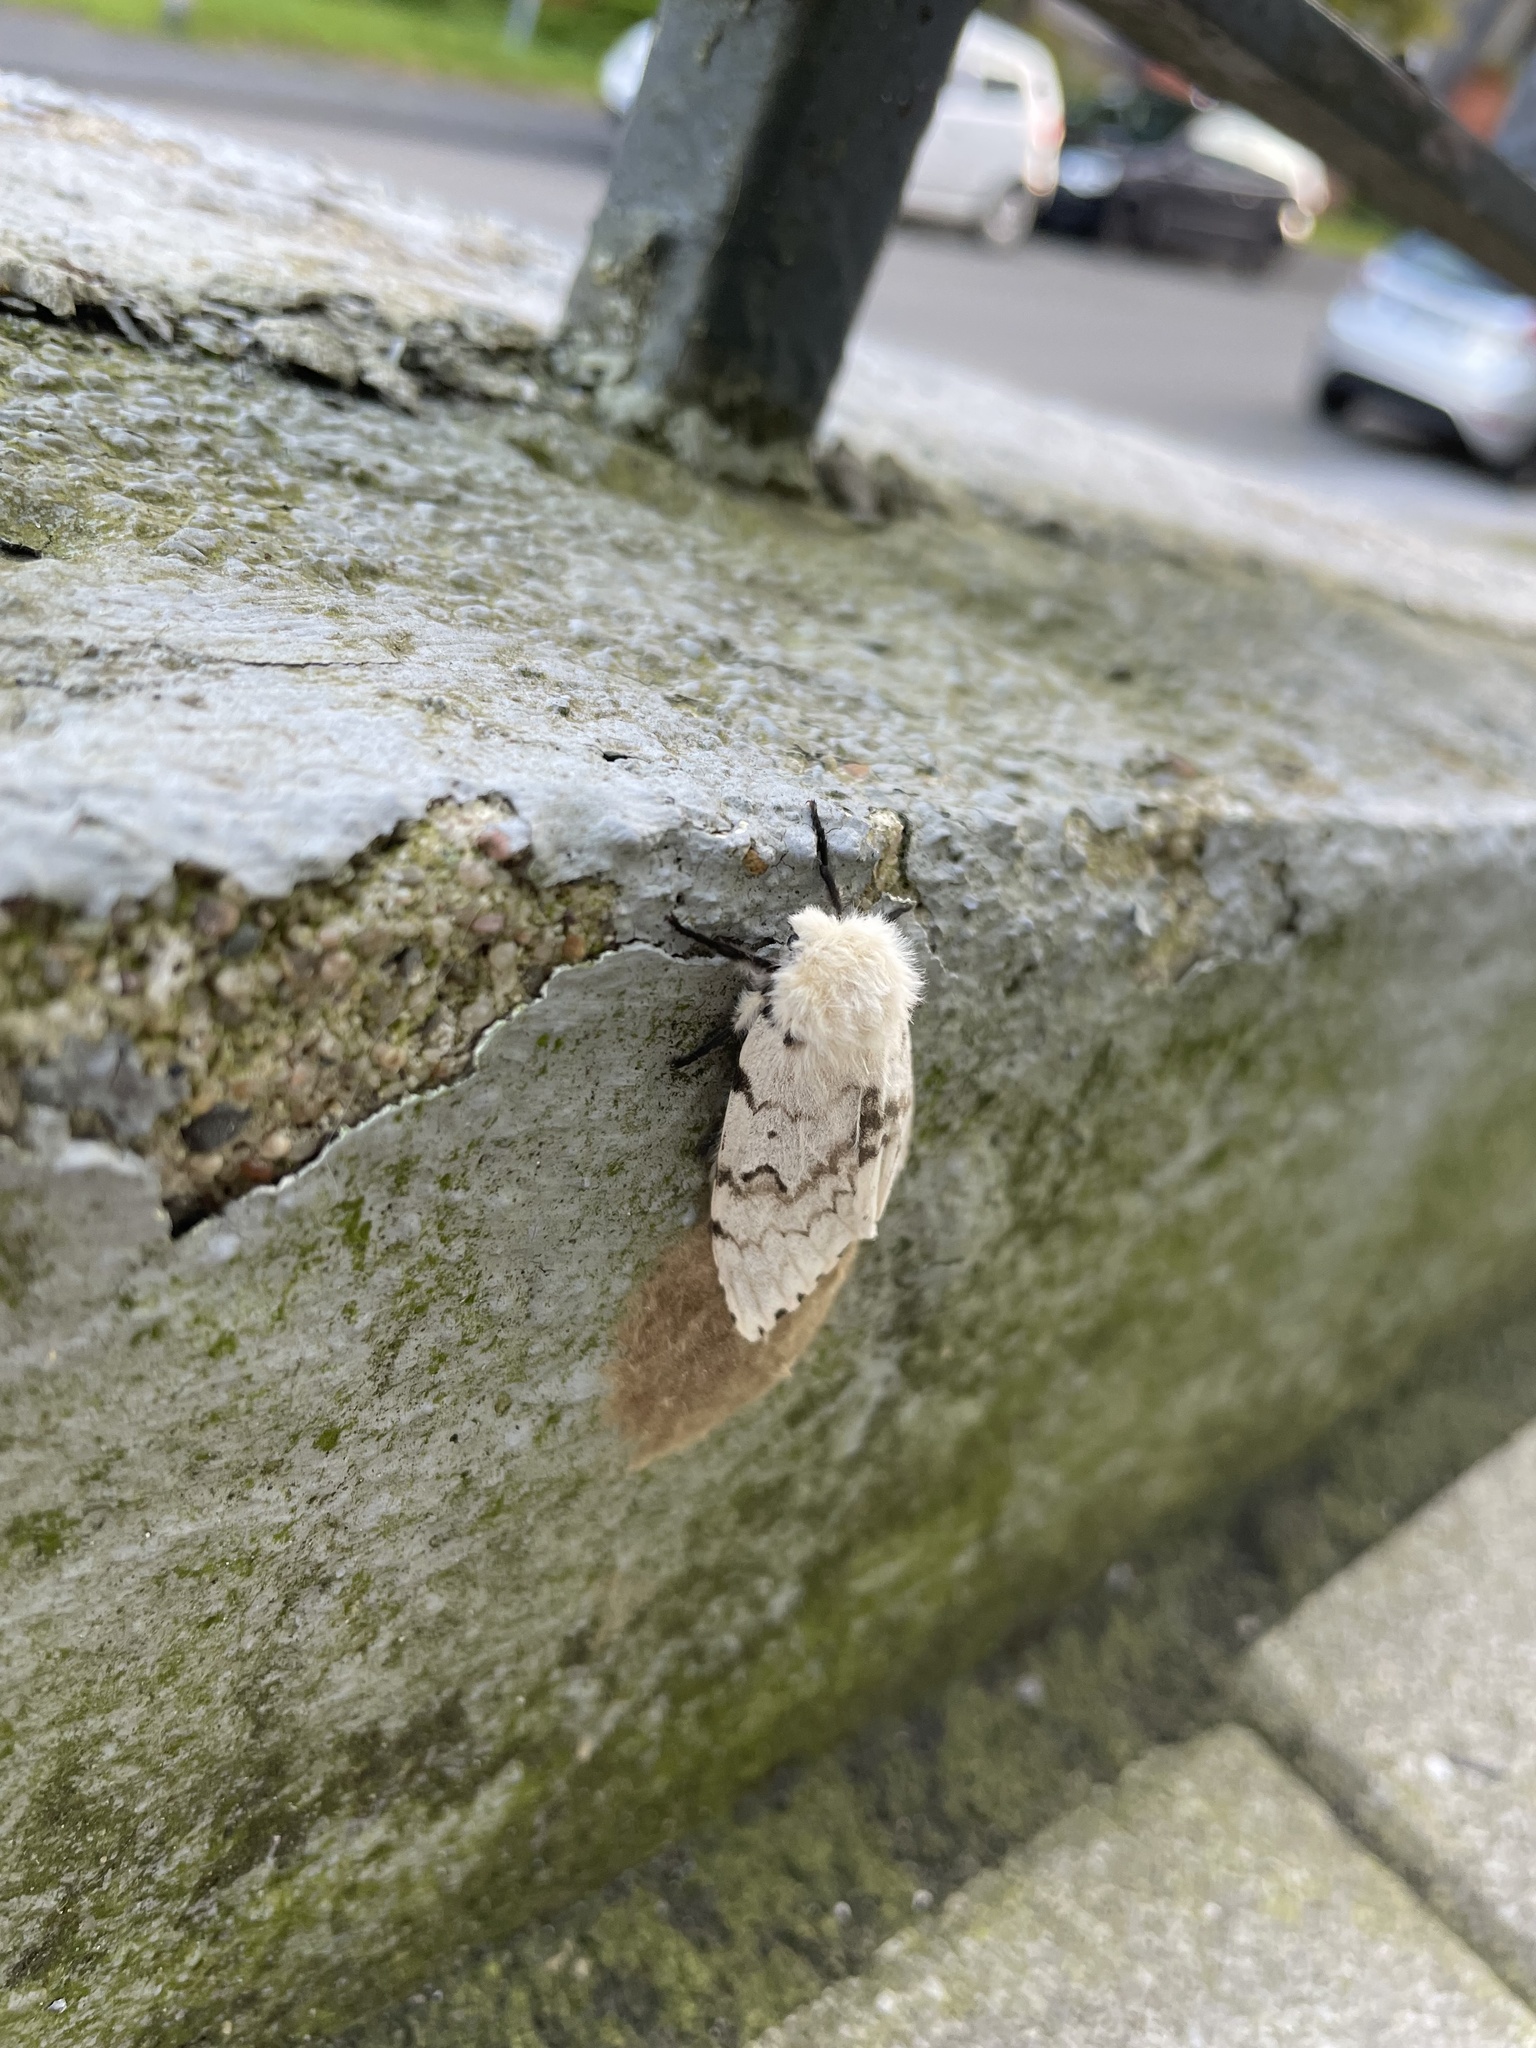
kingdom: Animalia
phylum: Arthropoda
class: Insecta
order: Lepidoptera
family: Erebidae
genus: Lymantria
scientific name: Lymantria dispar
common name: Gypsy moth
